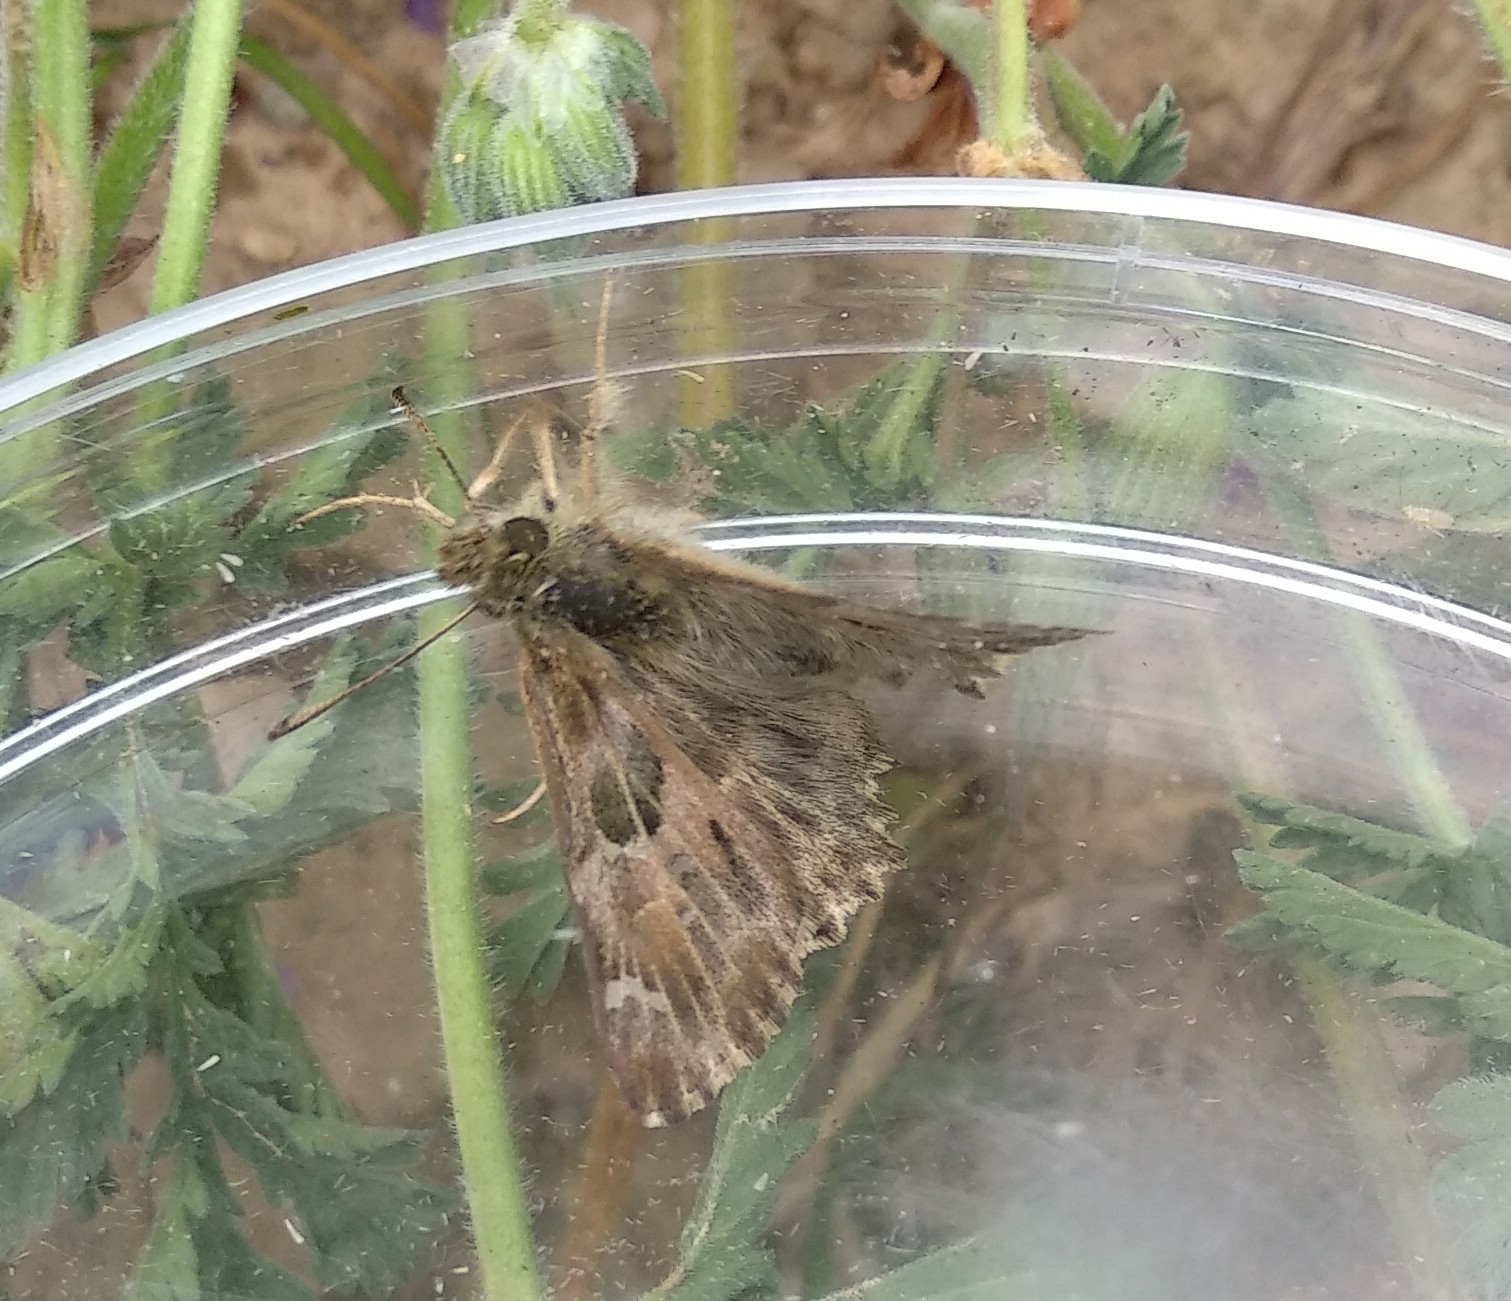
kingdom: Animalia
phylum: Arthropoda
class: Insecta
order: Lepidoptera
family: Hesperiidae
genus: Carcharodus
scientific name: Carcharodus alceae
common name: Mallow skipper
